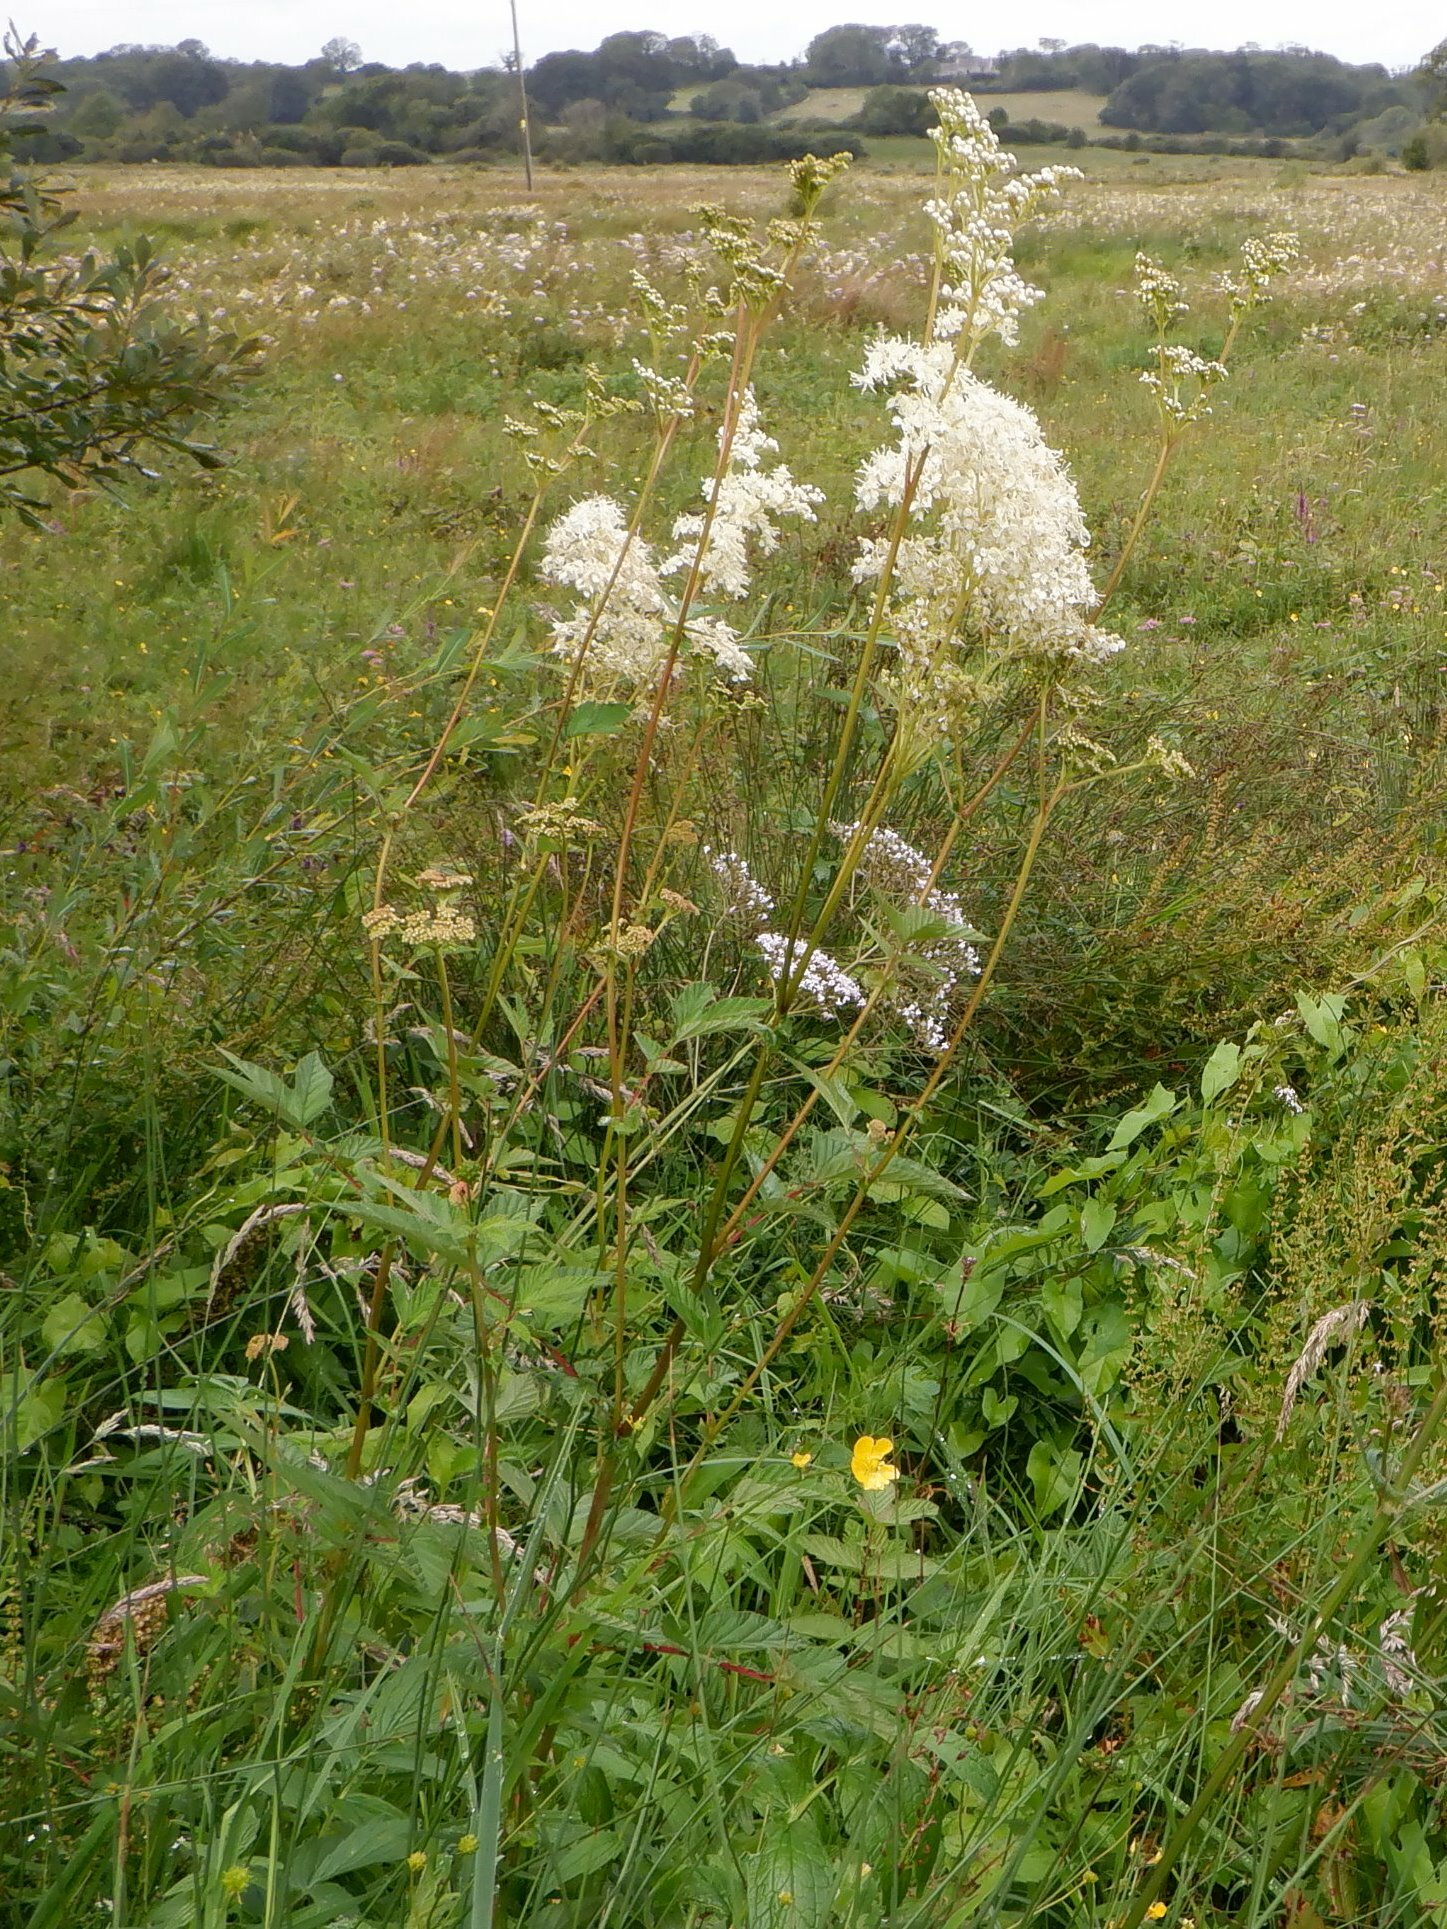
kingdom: Plantae
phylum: Tracheophyta
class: Magnoliopsida
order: Rosales
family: Rosaceae
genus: Filipendula
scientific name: Filipendula ulmaria
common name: Meadowsweet
